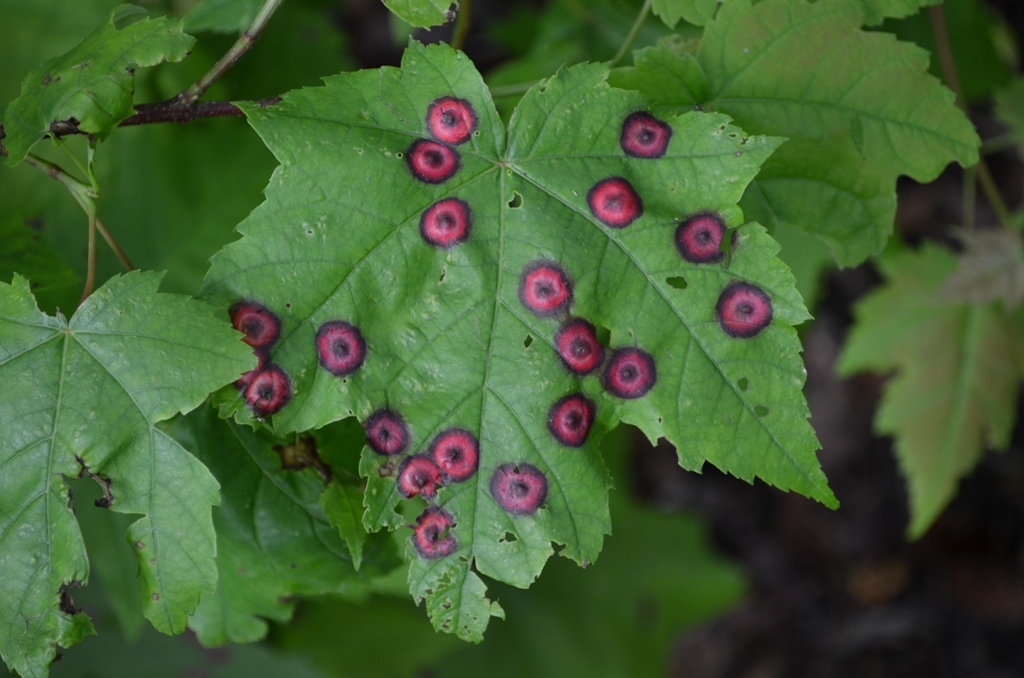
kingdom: Animalia
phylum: Arthropoda
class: Insecta
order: Diptera
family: Cecidomyiidae
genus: Acericecis
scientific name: Acericecis ocellaris
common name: Ocellate gall midge
